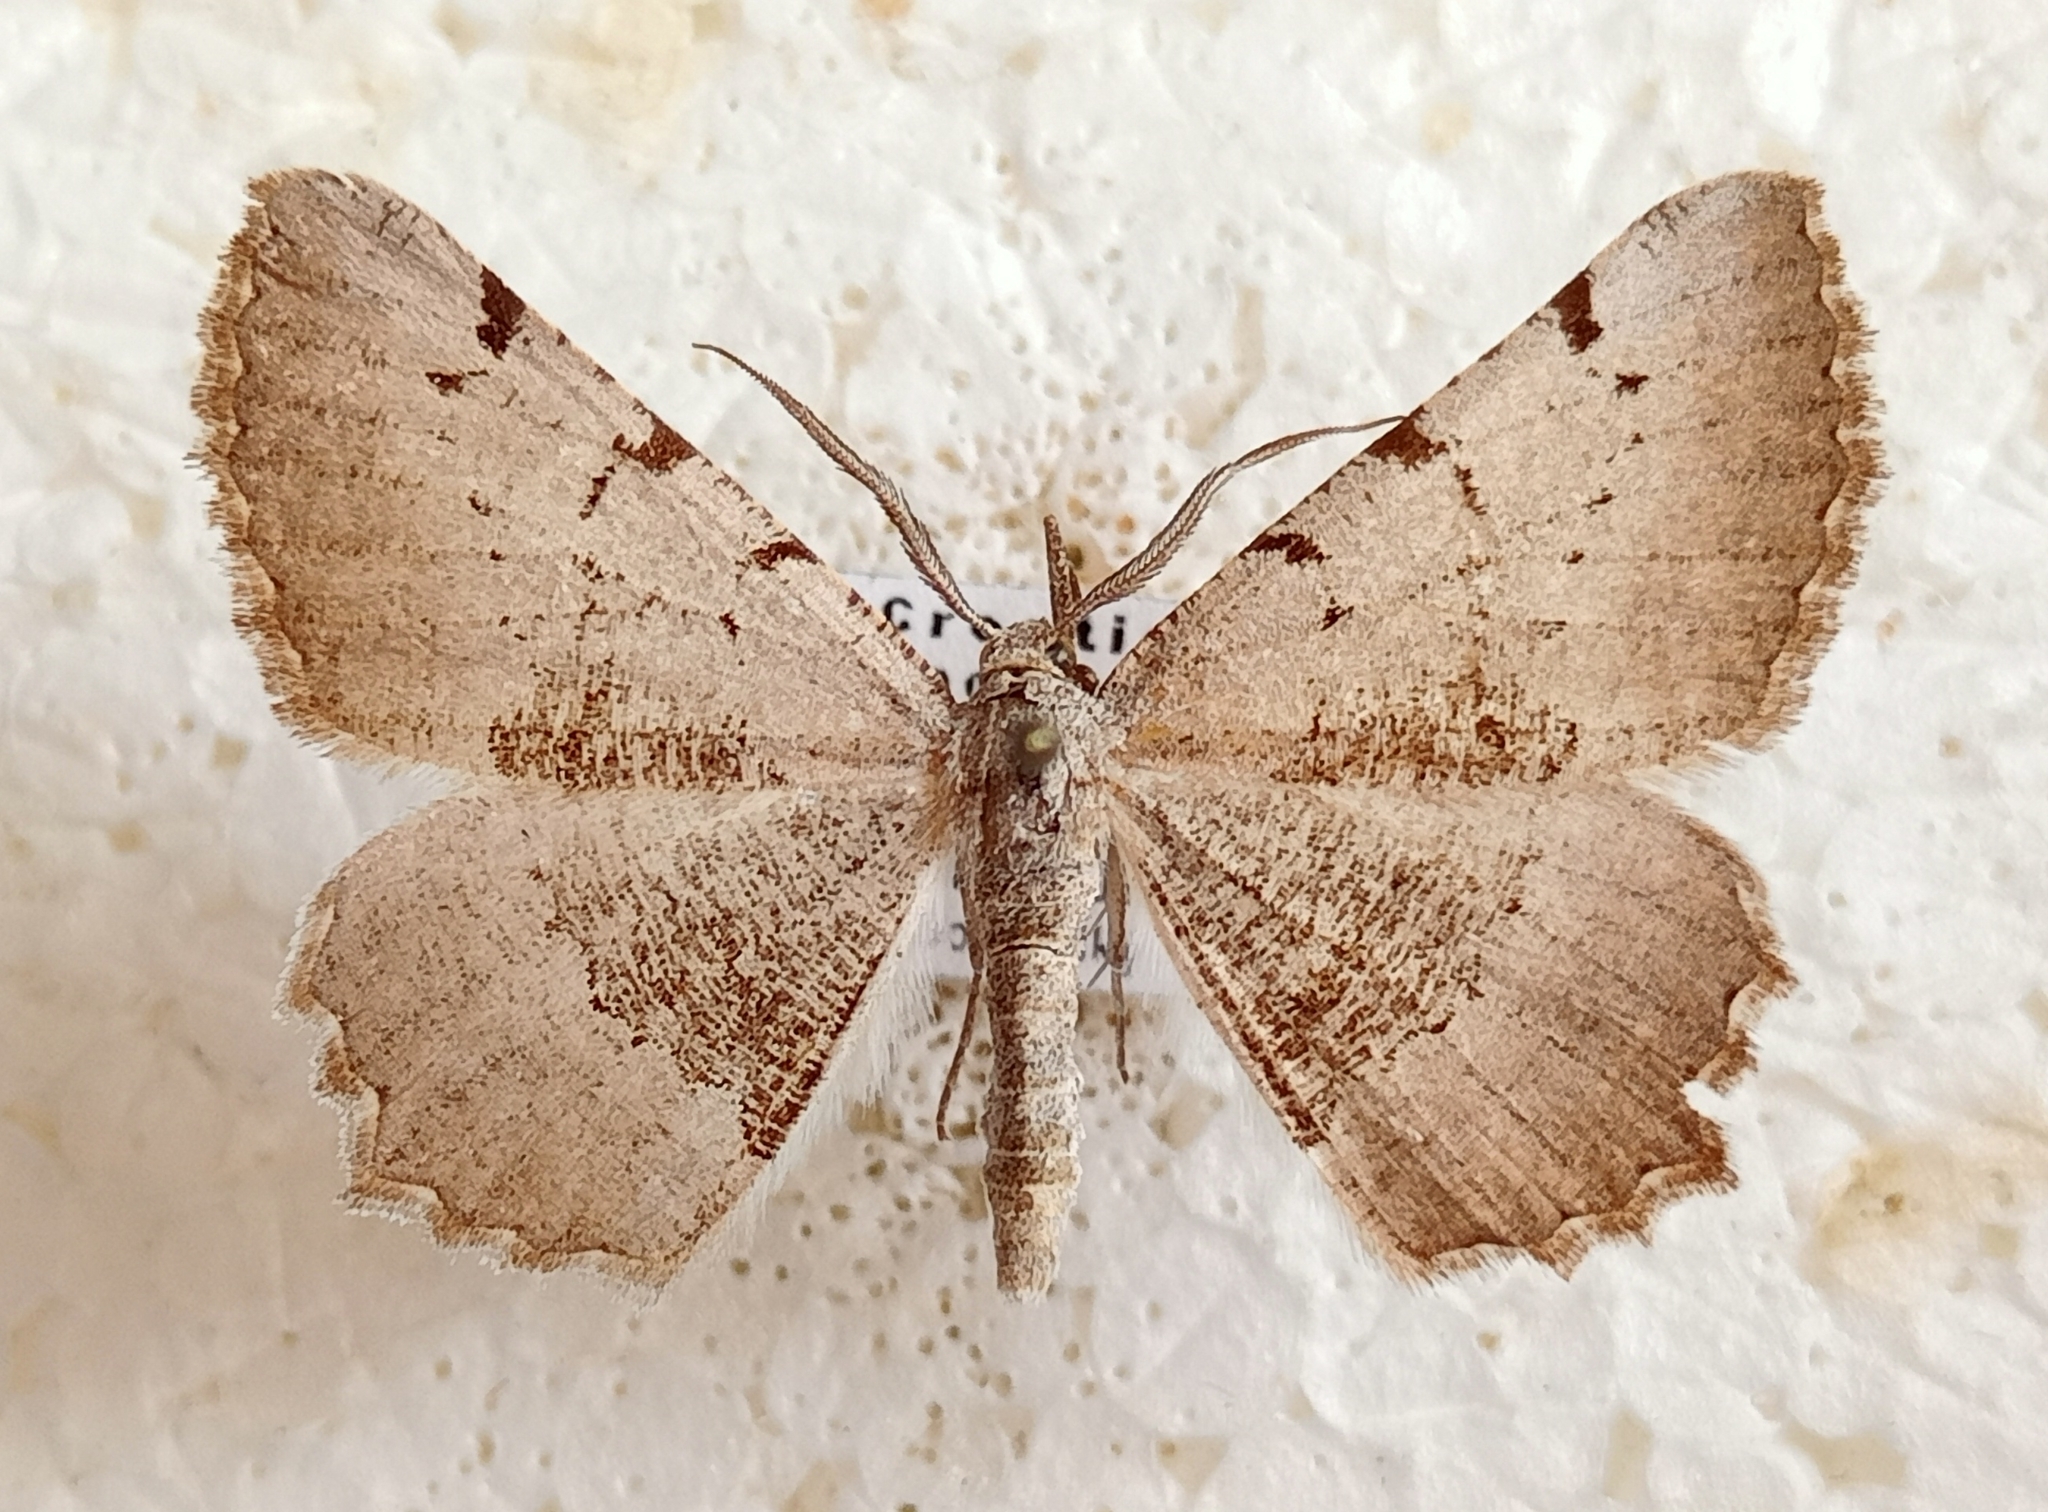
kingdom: Animalia
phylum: Arthropoda
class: Insecta
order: Lepidoptera
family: Geometridae
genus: Neognopharmia
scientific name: Neognopharmia stevenaria
